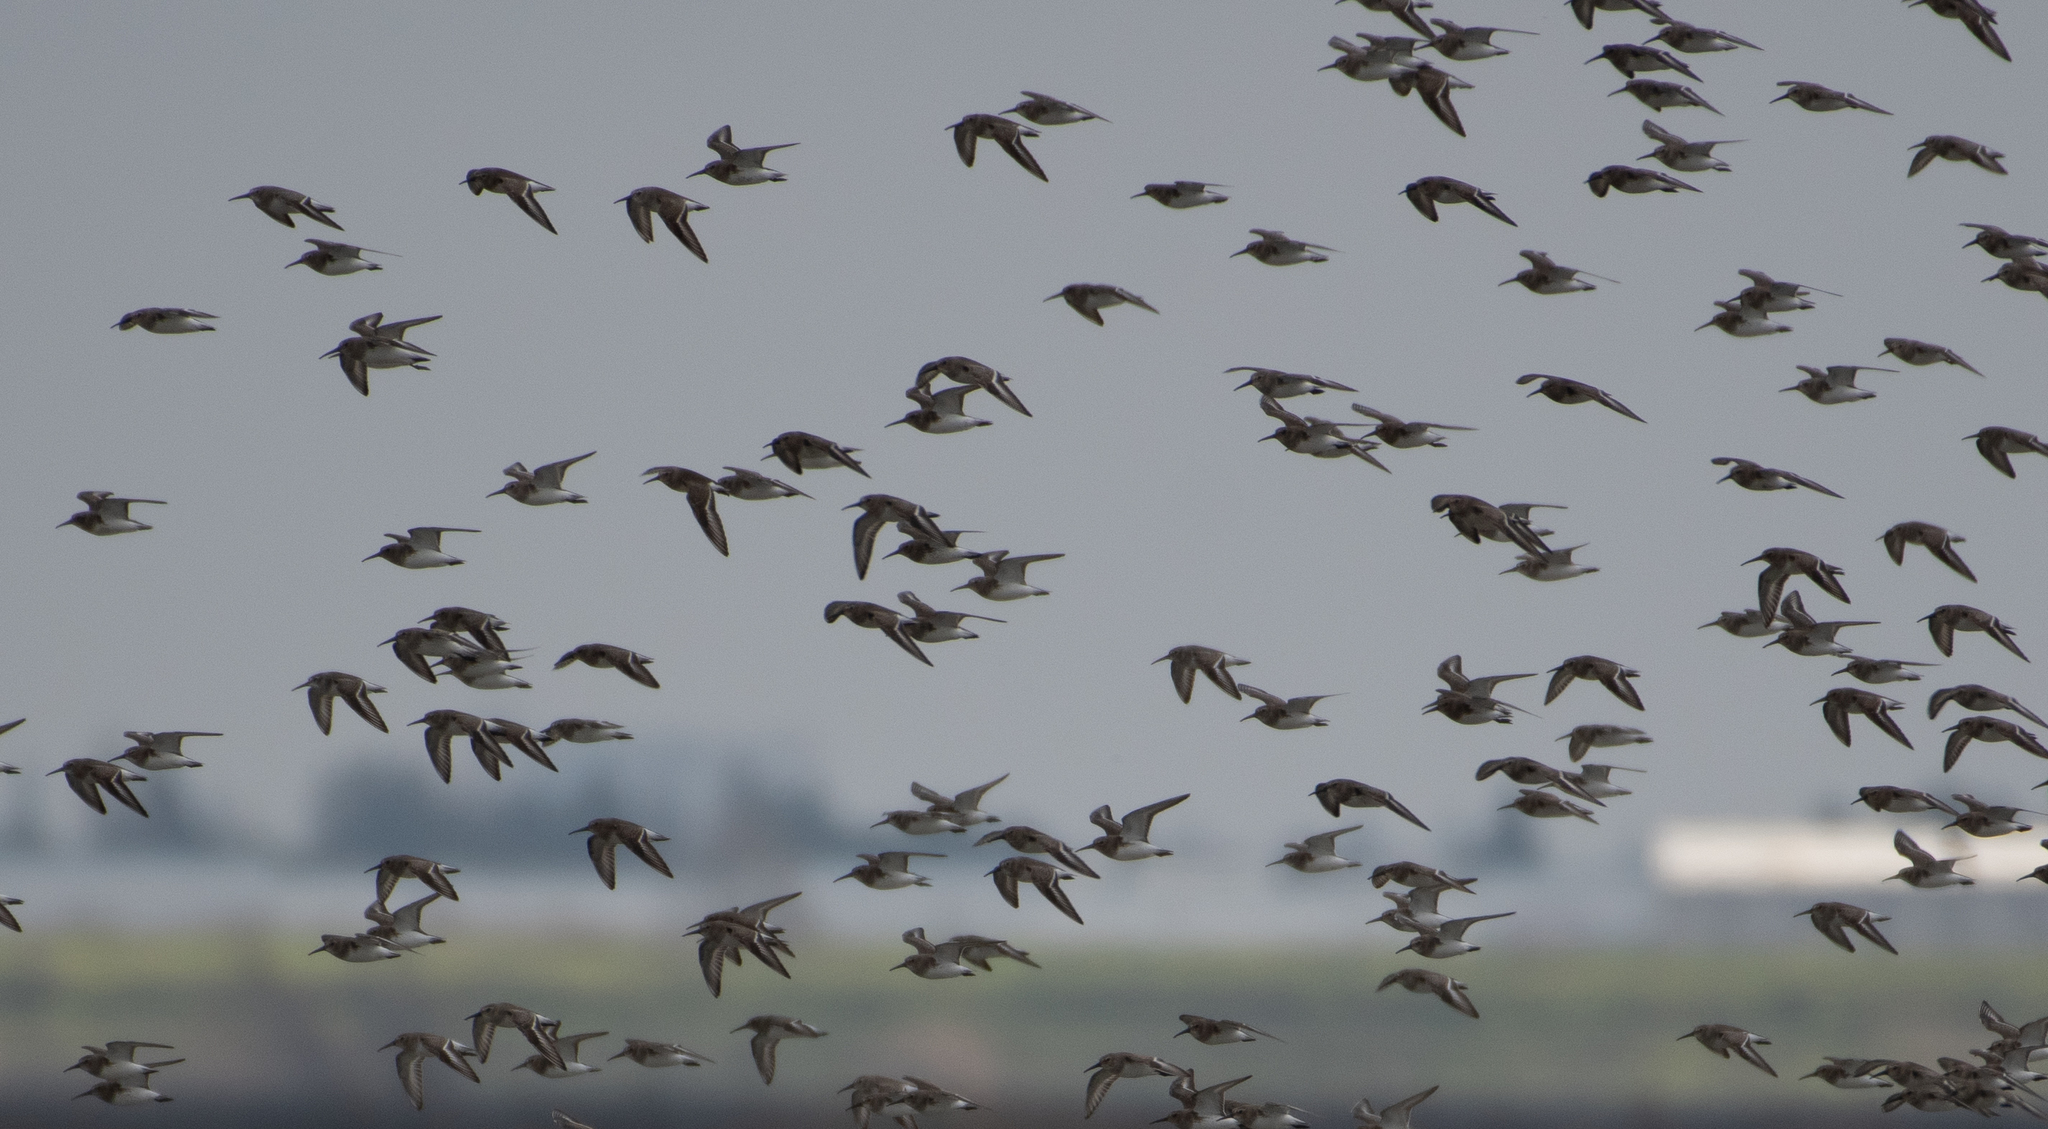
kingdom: Animalia
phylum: Chordata
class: Aves
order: Charadriiformes
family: Scolopacidae
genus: Calidris
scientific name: Calidris alpina
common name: Dunlin
